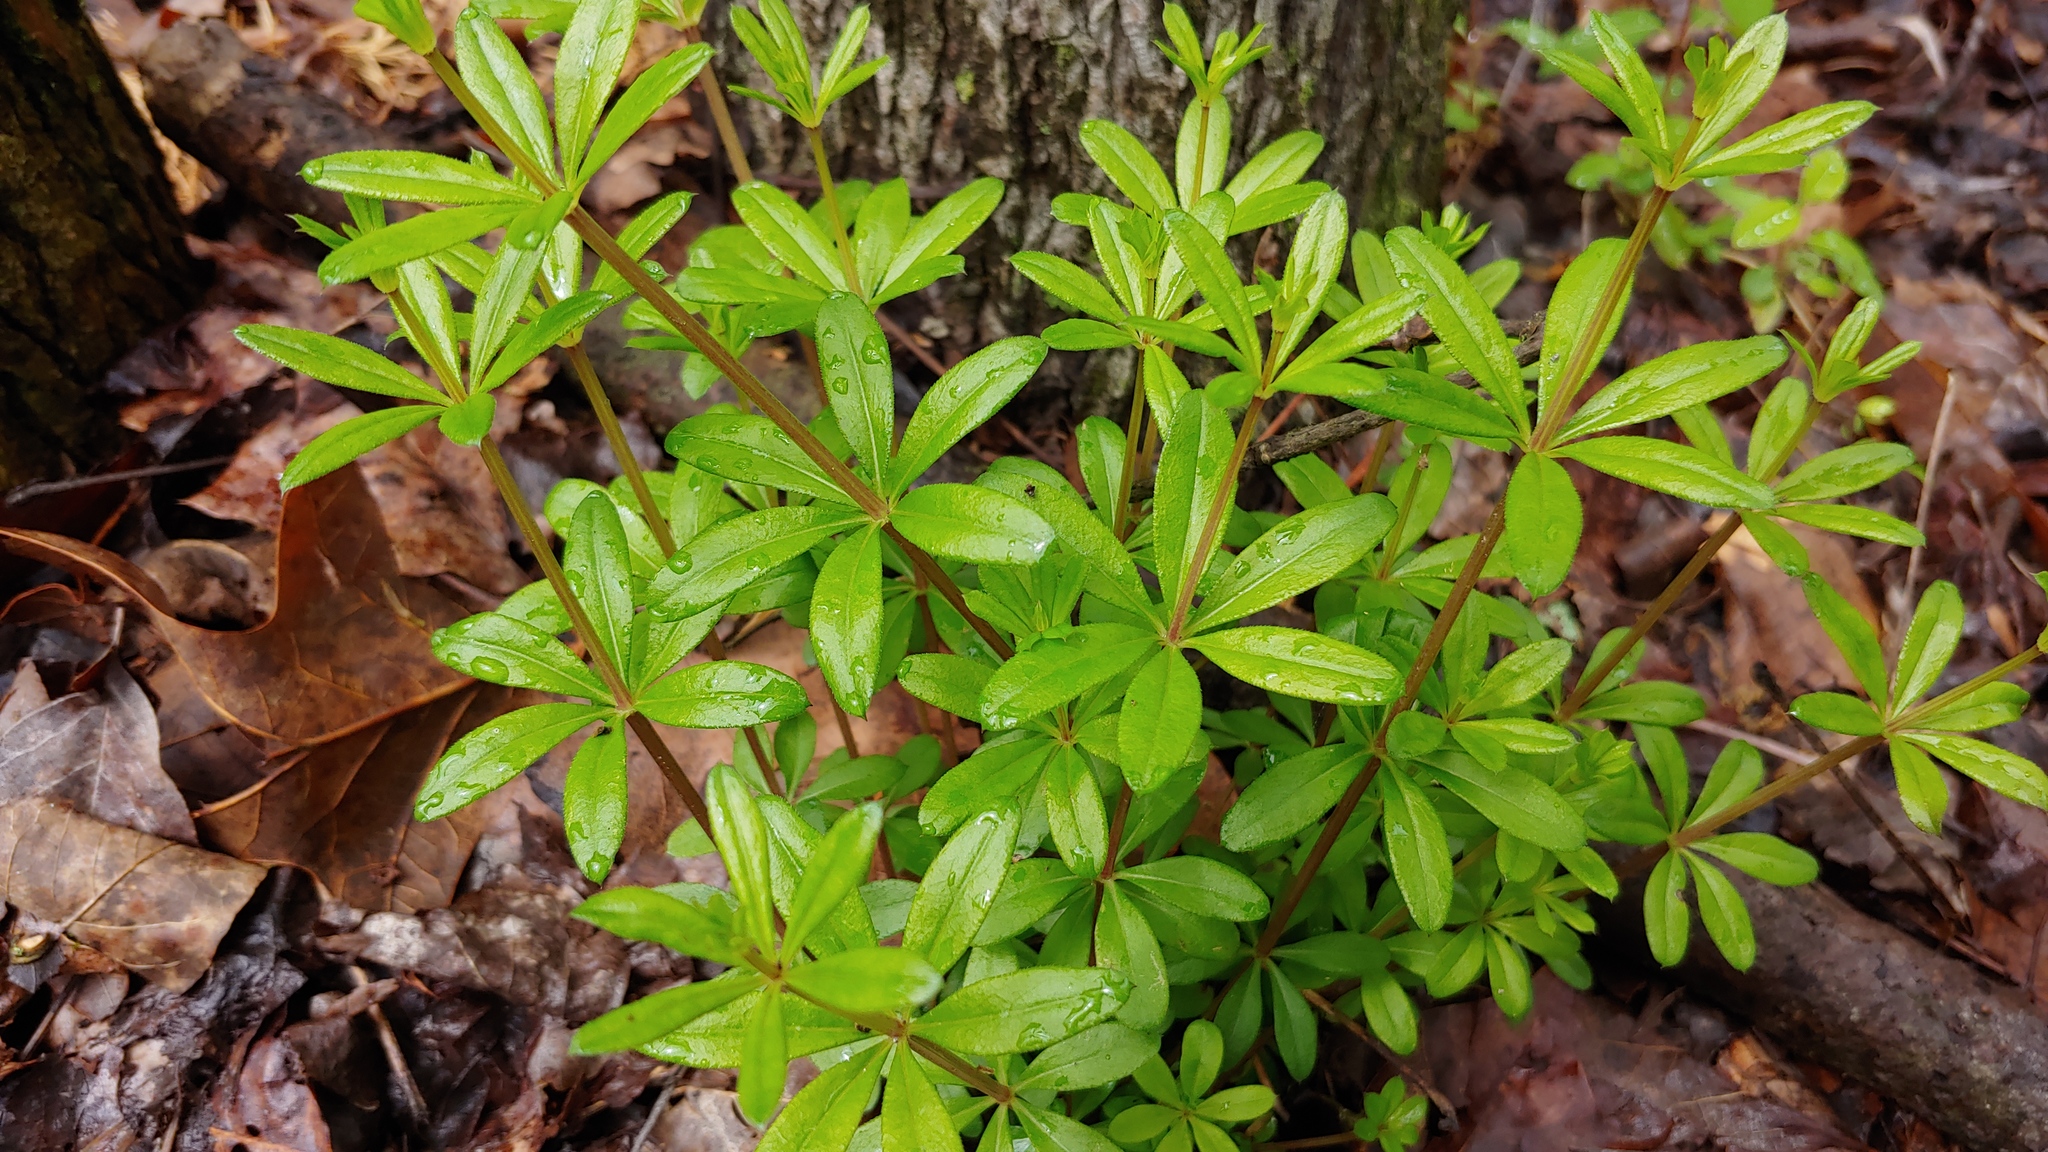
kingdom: Plantae
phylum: Tracheophyta
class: Magnoliopsida
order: Gentianales
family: Rubiaceae
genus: Galium
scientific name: Galium triflorum
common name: Fragrant bedstraw
